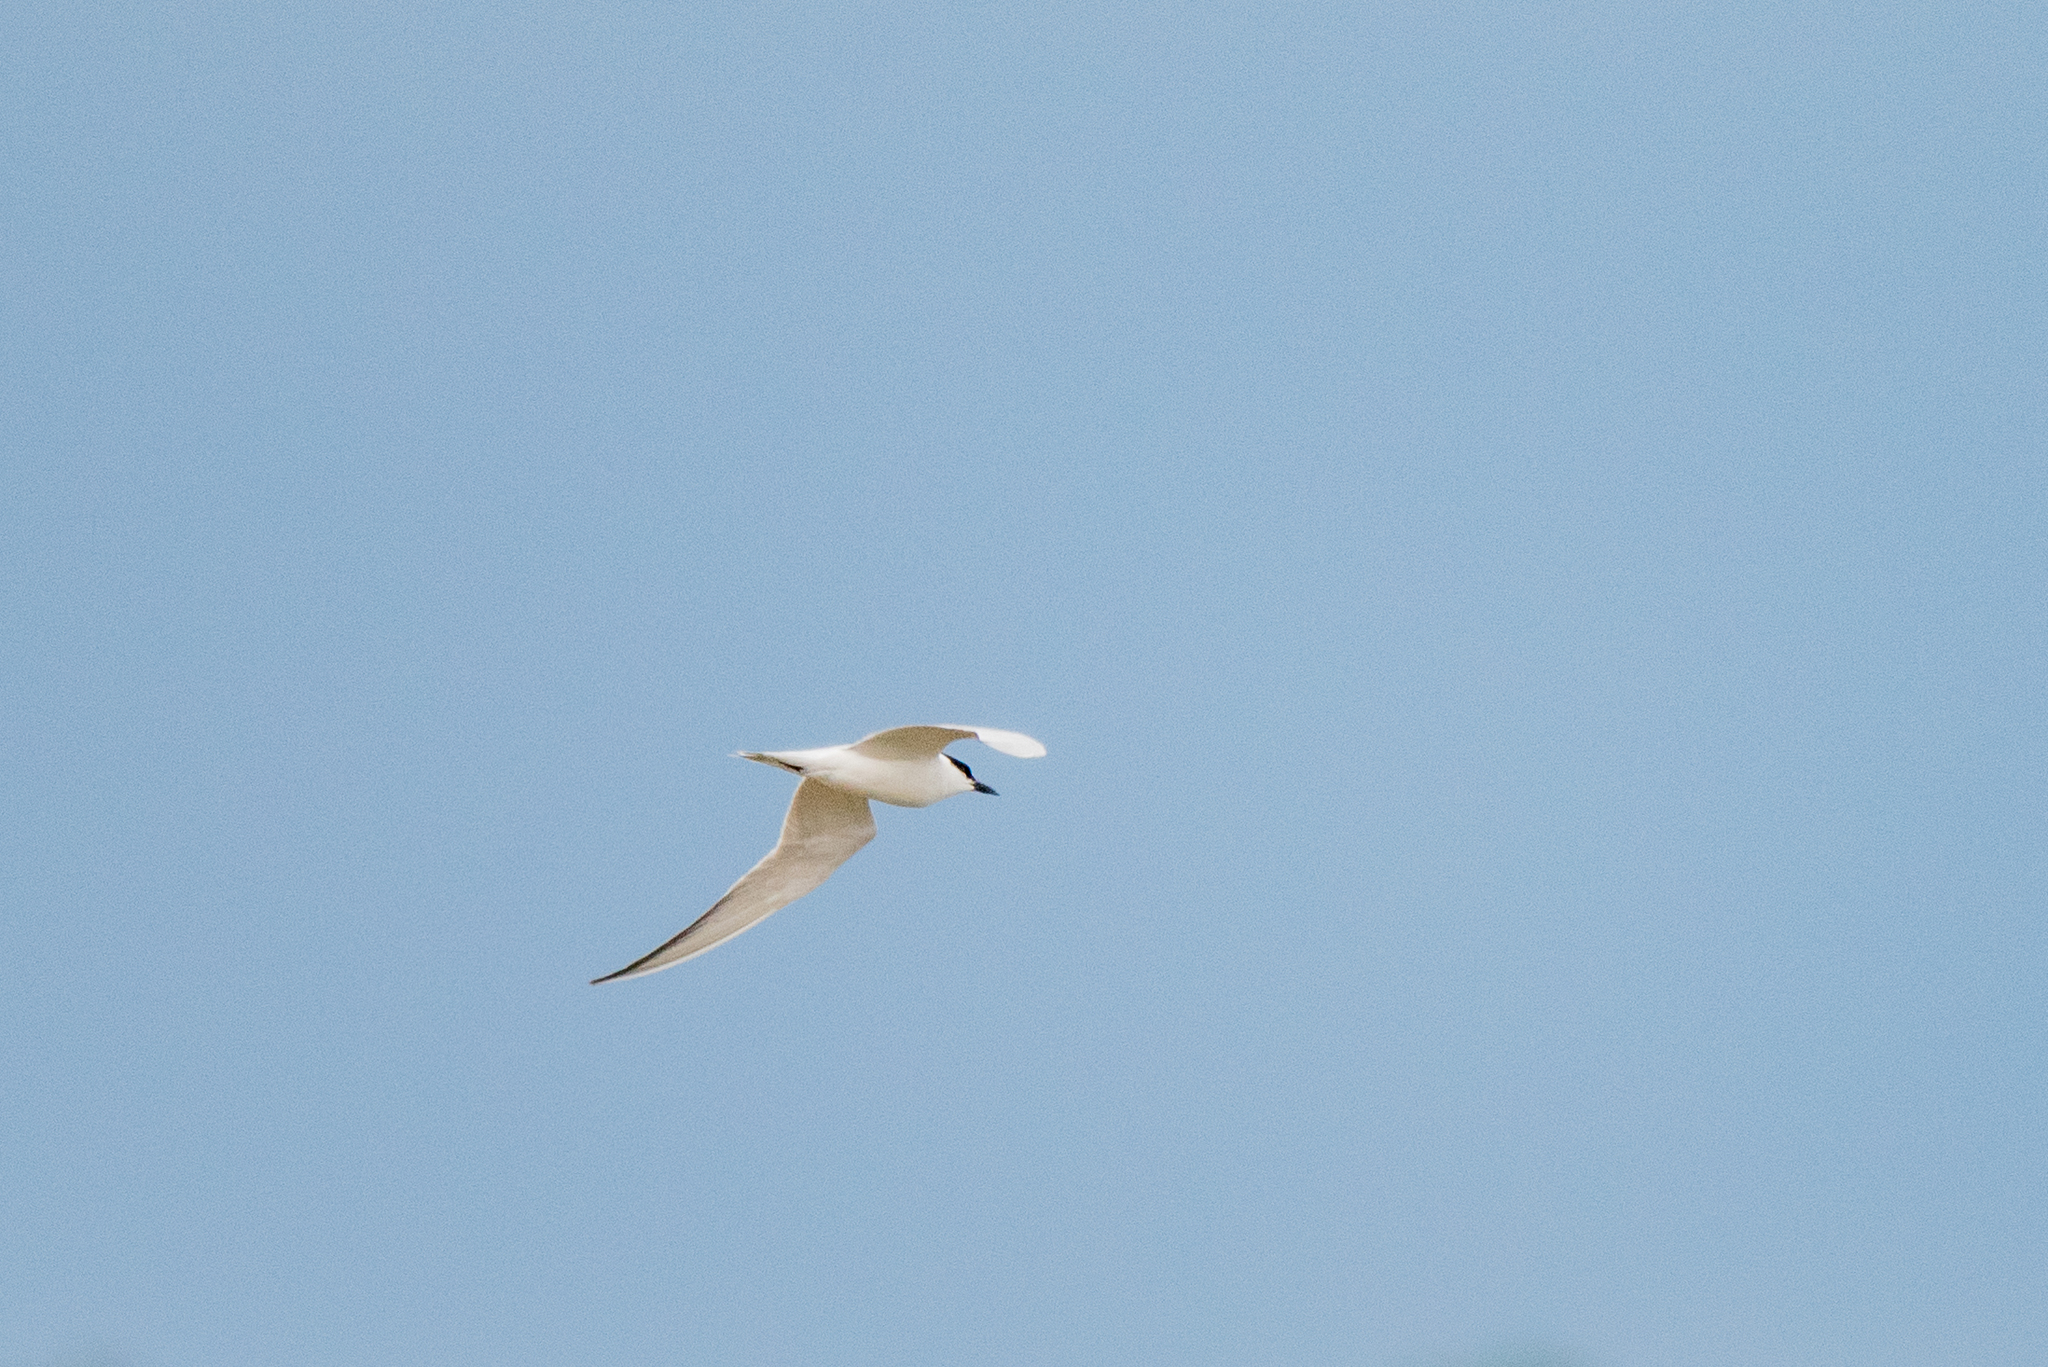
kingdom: Animalia
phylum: Chordata
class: Aves
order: Charadriiformes
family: Laridae
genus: Gelochelidon
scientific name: Gelochelidon nilotica
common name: Gull-billed tern
